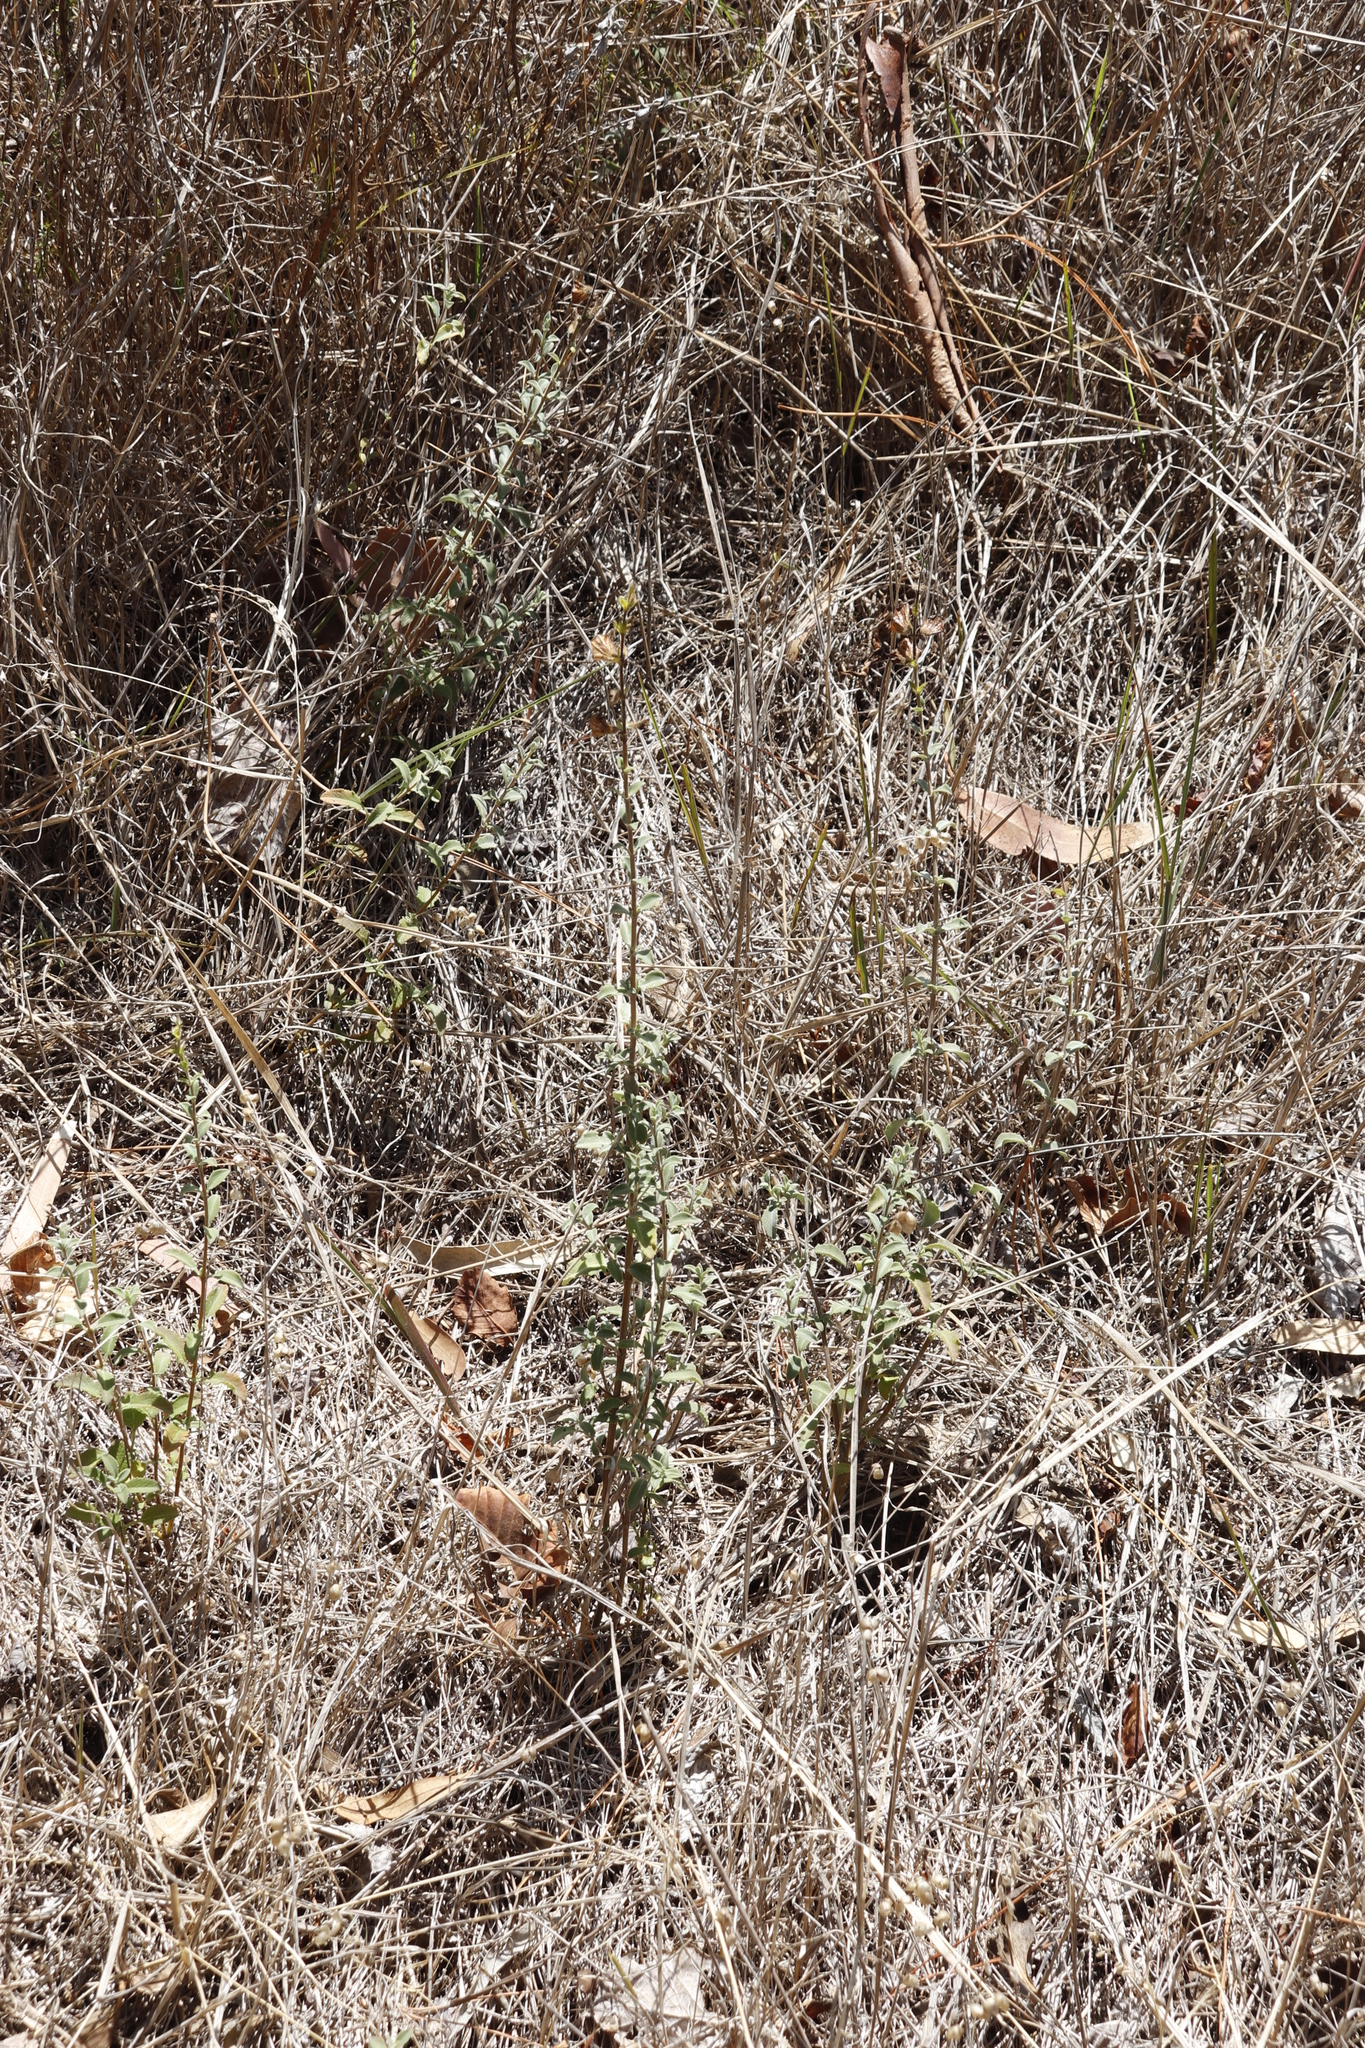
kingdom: Plantae
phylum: Tracheophyta
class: Magnoliopsida
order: Lamiales
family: Lamiaceae
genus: Salvia
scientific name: Salvia africana
